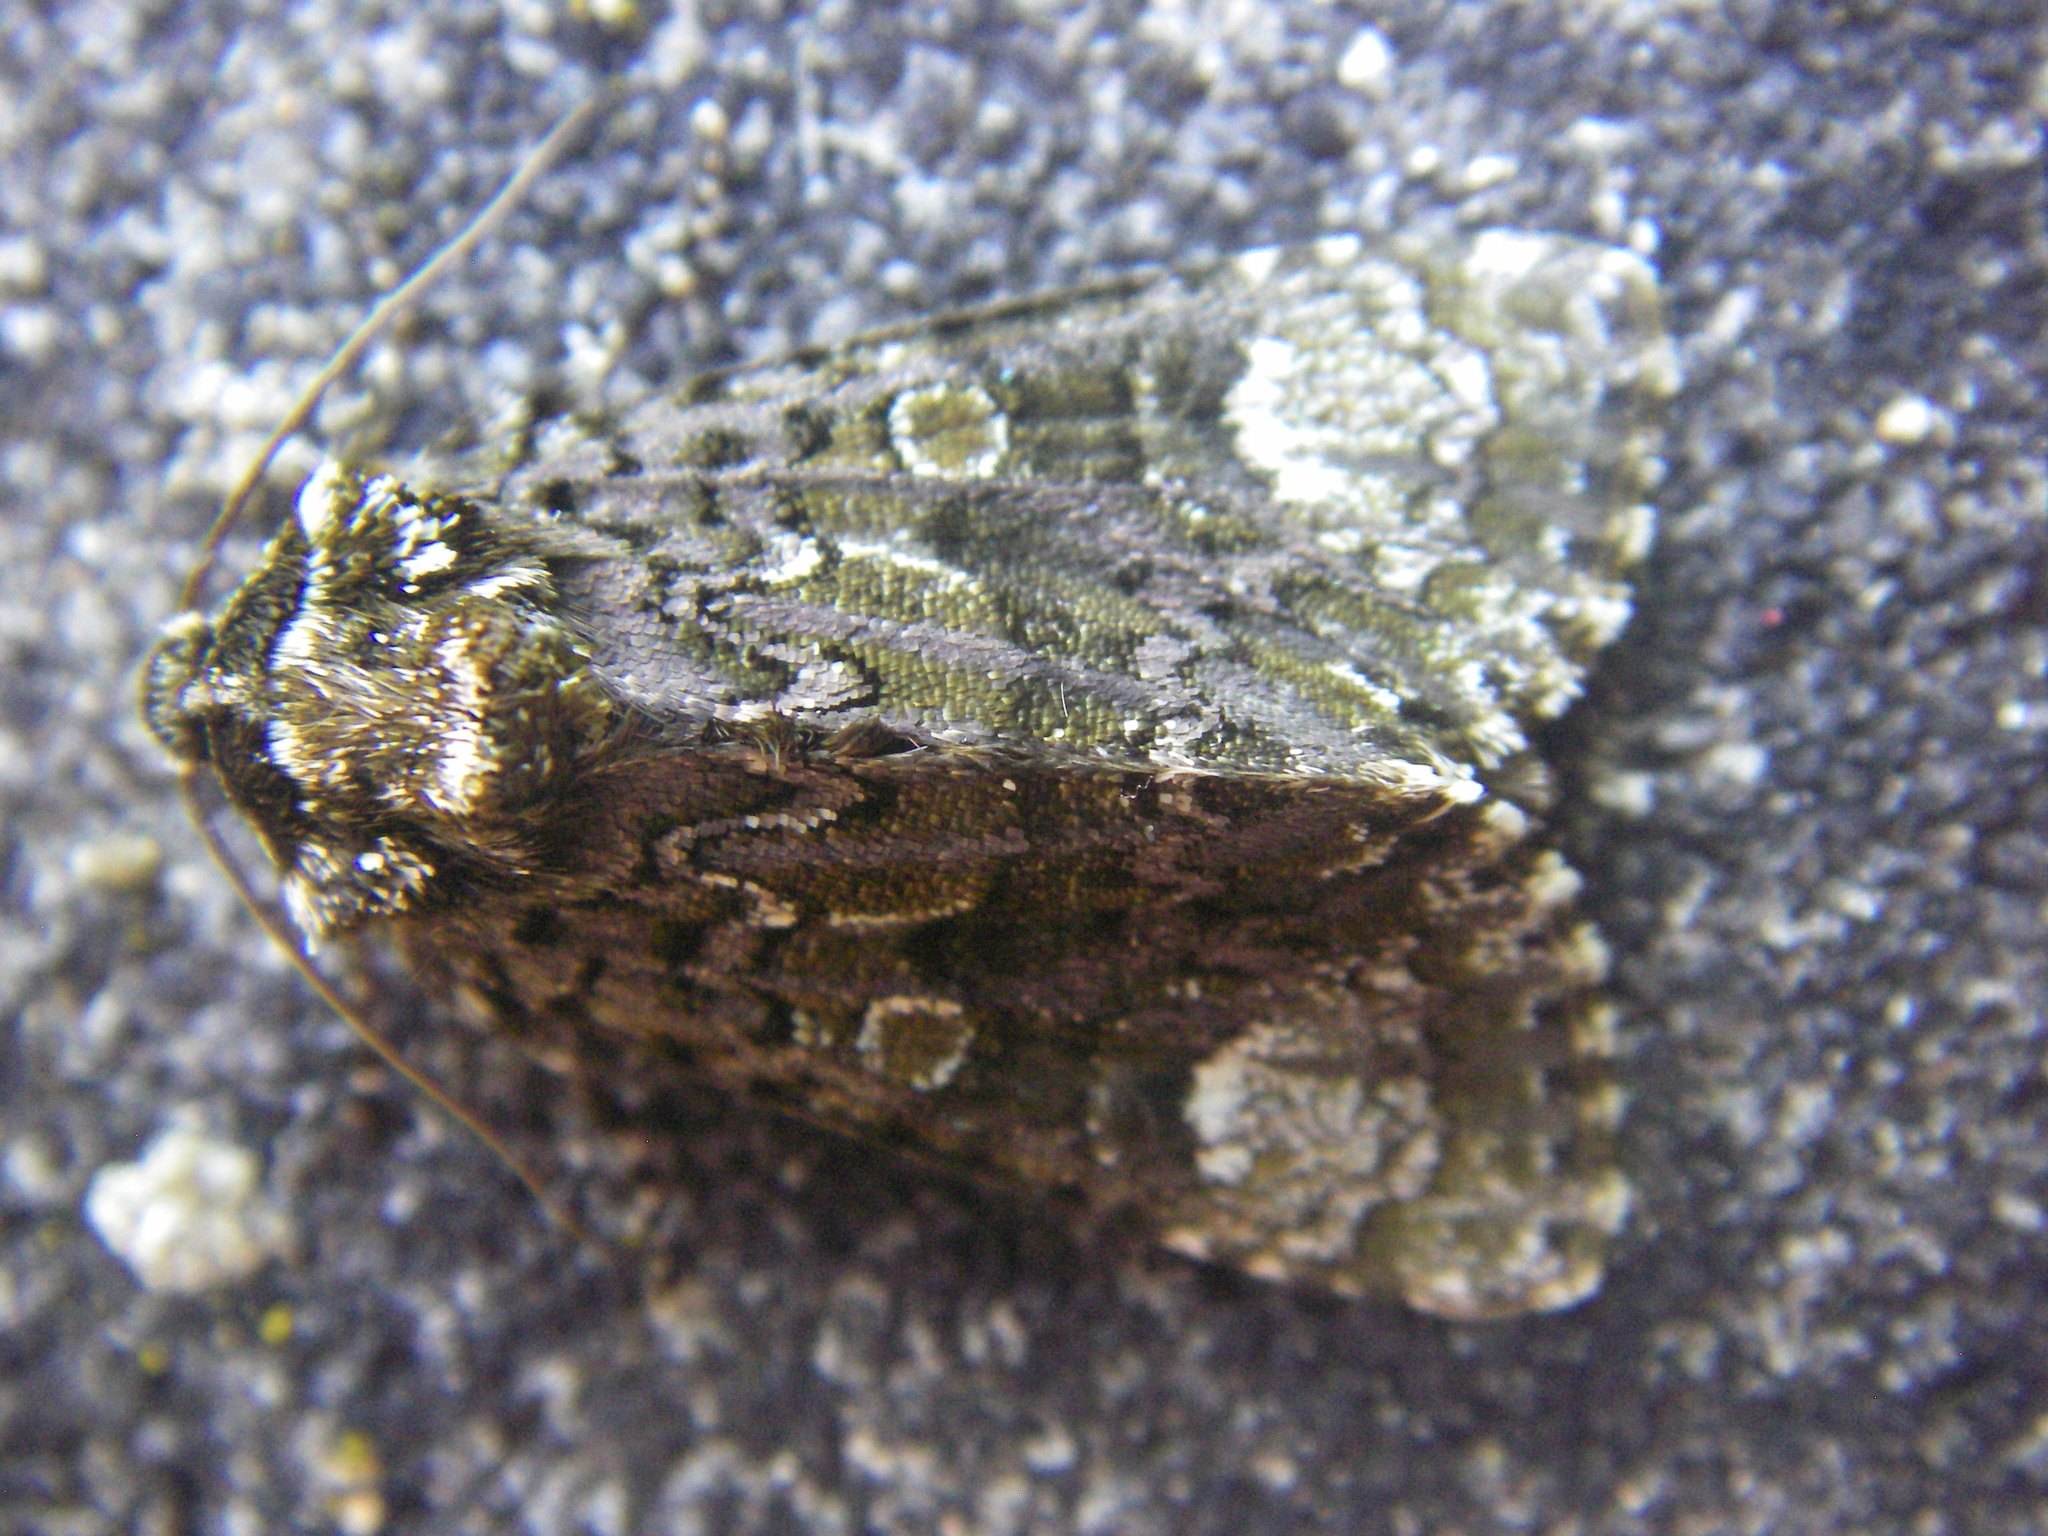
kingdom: Animalia
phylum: Arthropoda
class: Insecta
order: Lepidoptera
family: Noctuidae
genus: Craniophora
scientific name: Craniophora ligustri
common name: Coronet
